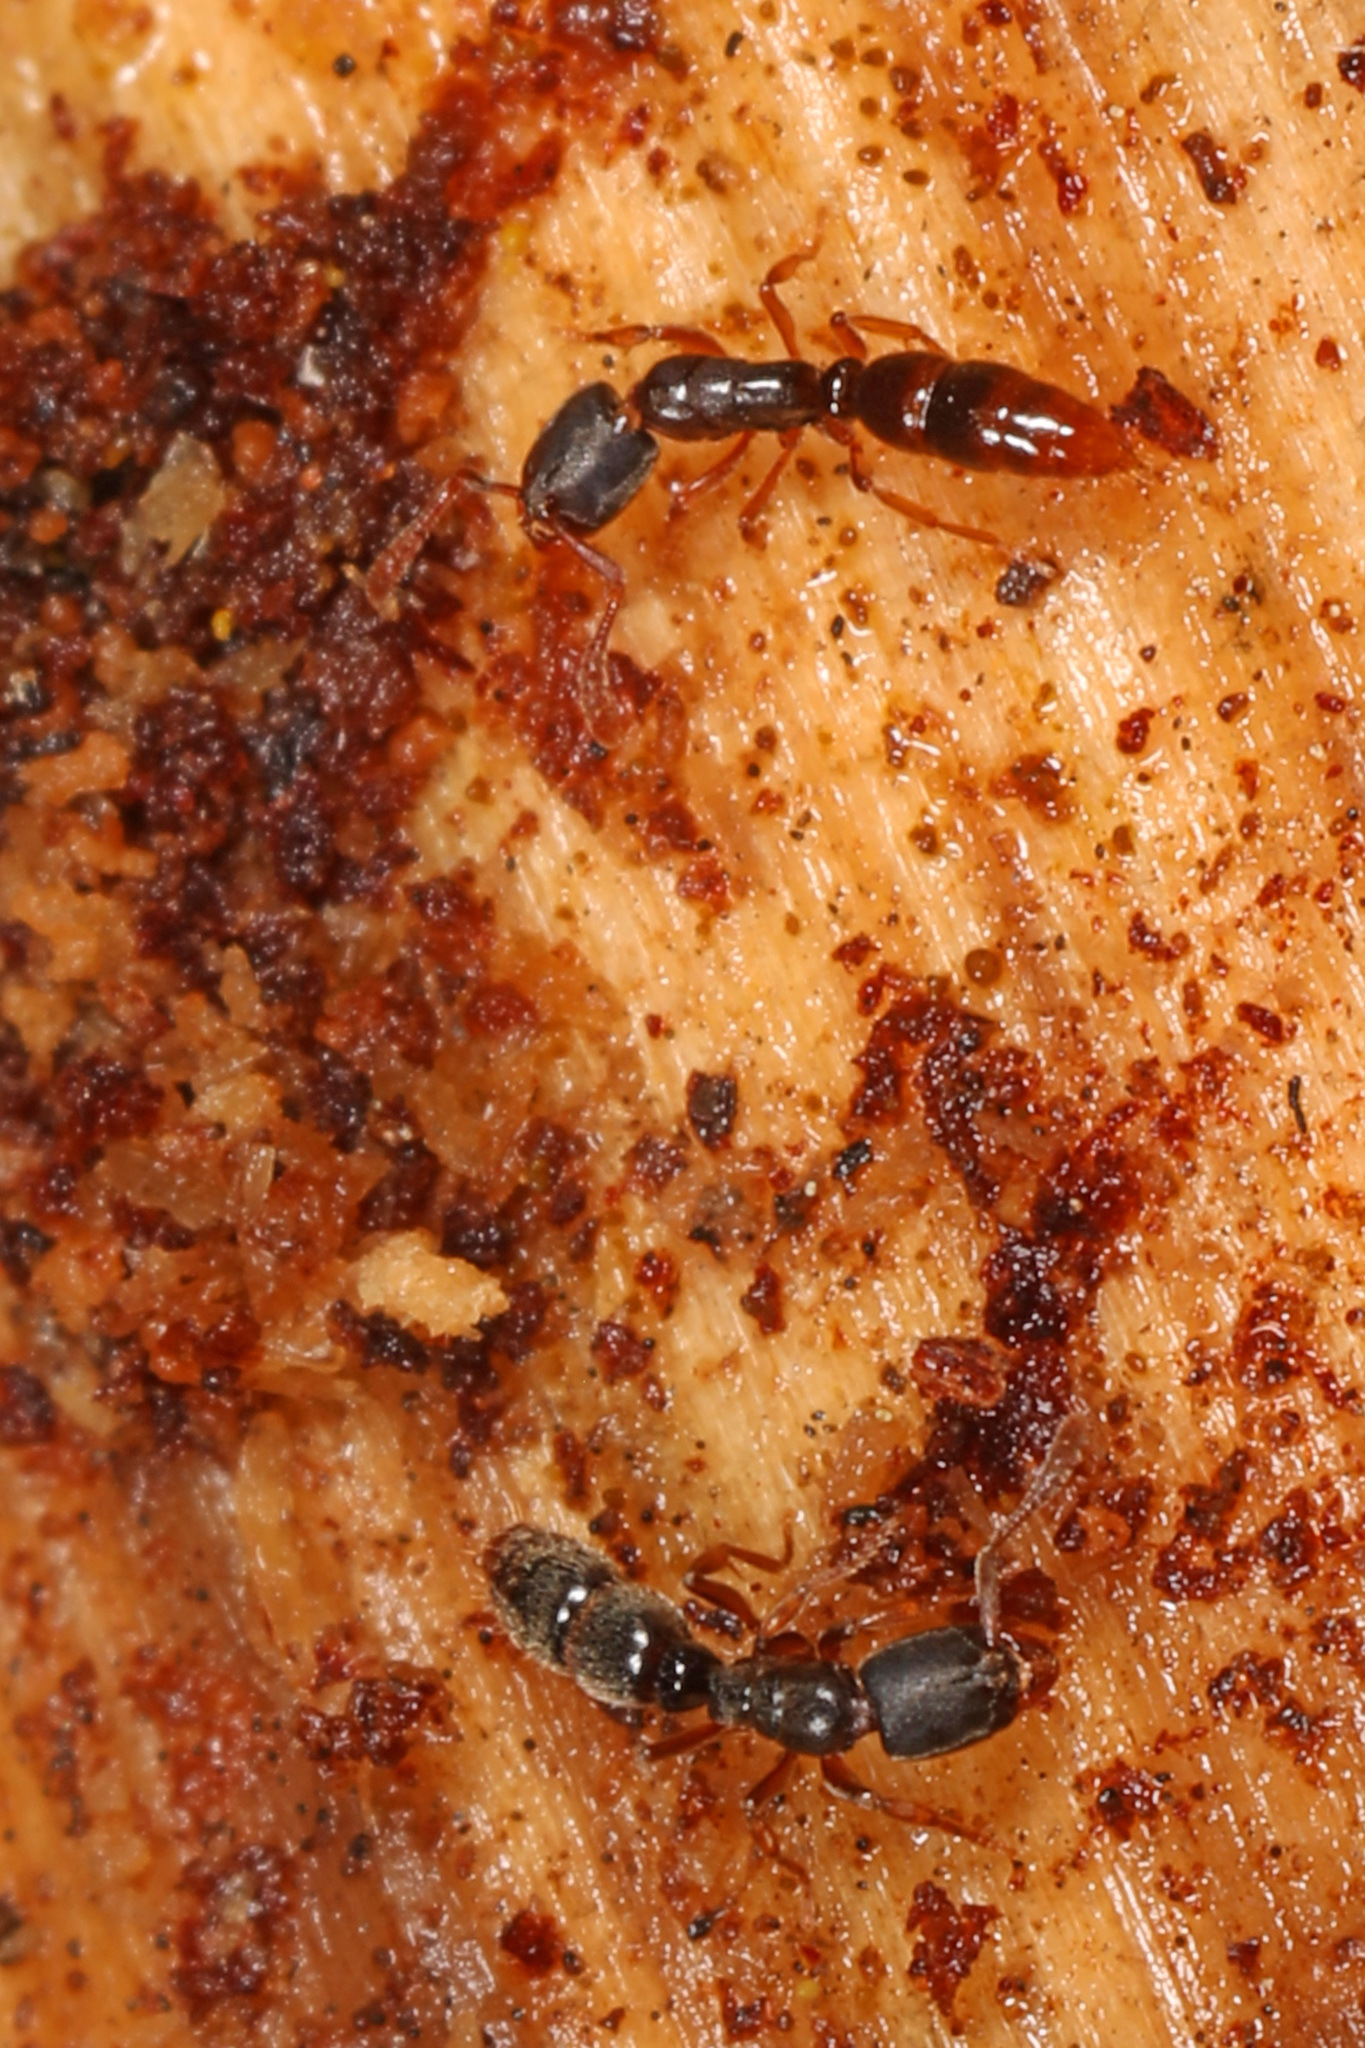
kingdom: Animalia
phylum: Arthropoda
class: Insecta
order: Hymenoptera
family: Formicidae
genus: Ponera
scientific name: Ponera pennsylvanica
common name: Pennsylvania ponera
